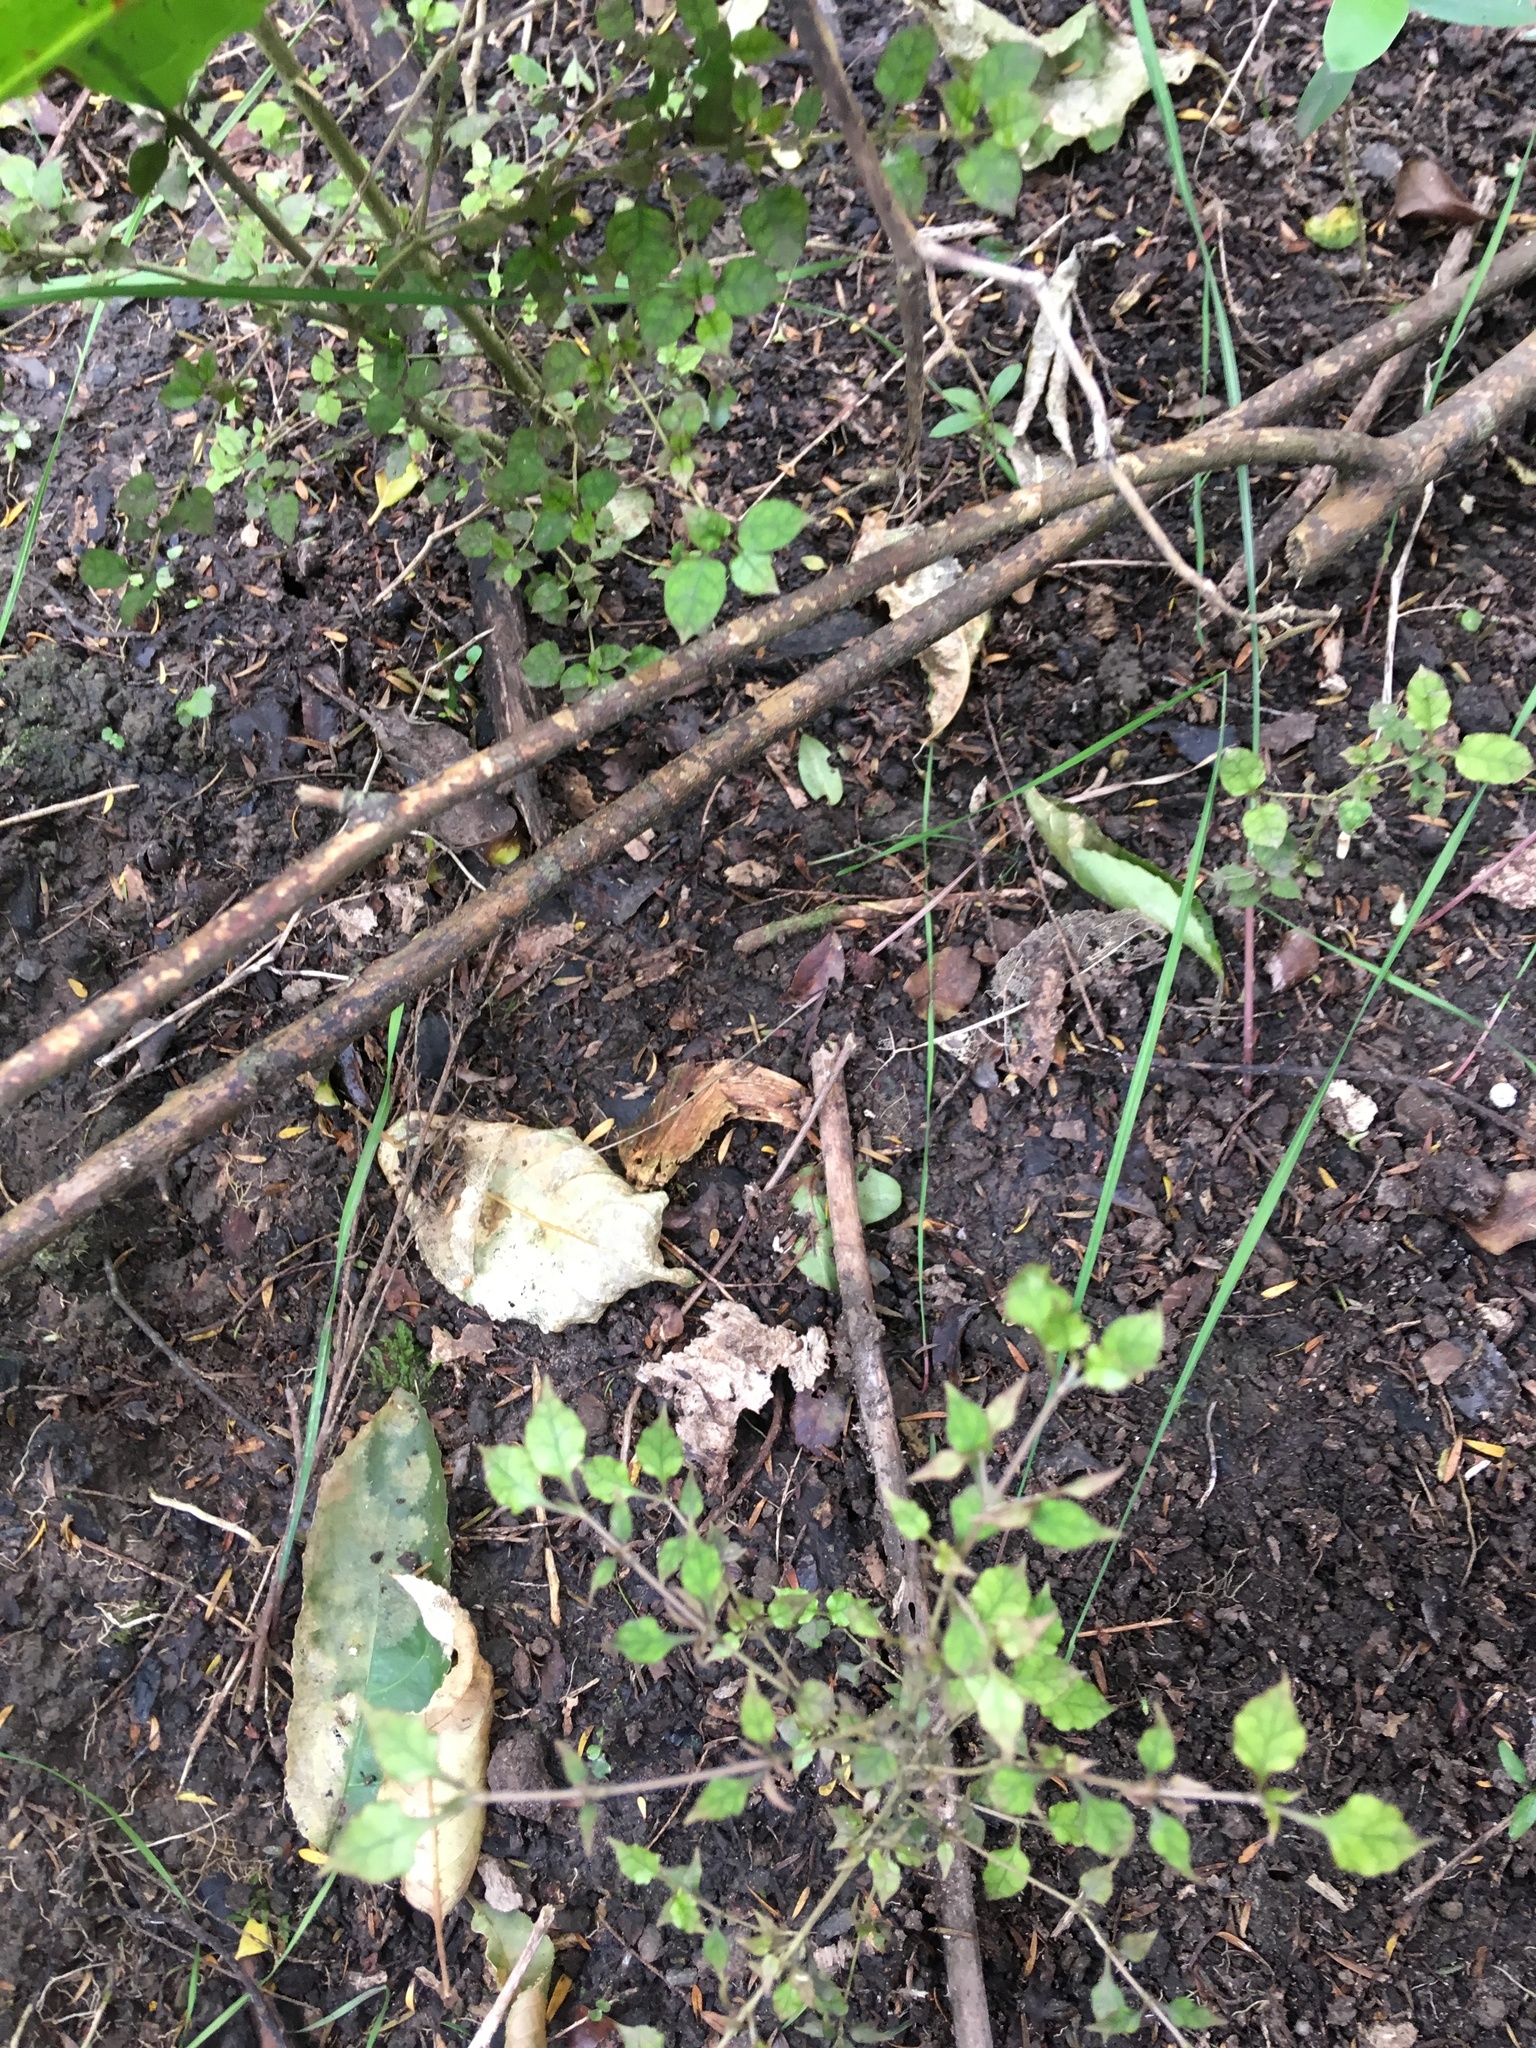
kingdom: Plantae
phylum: Tracheophyta
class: Magnoliopsida
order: Gentianales
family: Rubiaceae
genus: Coprosma
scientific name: Coprosma areolata
